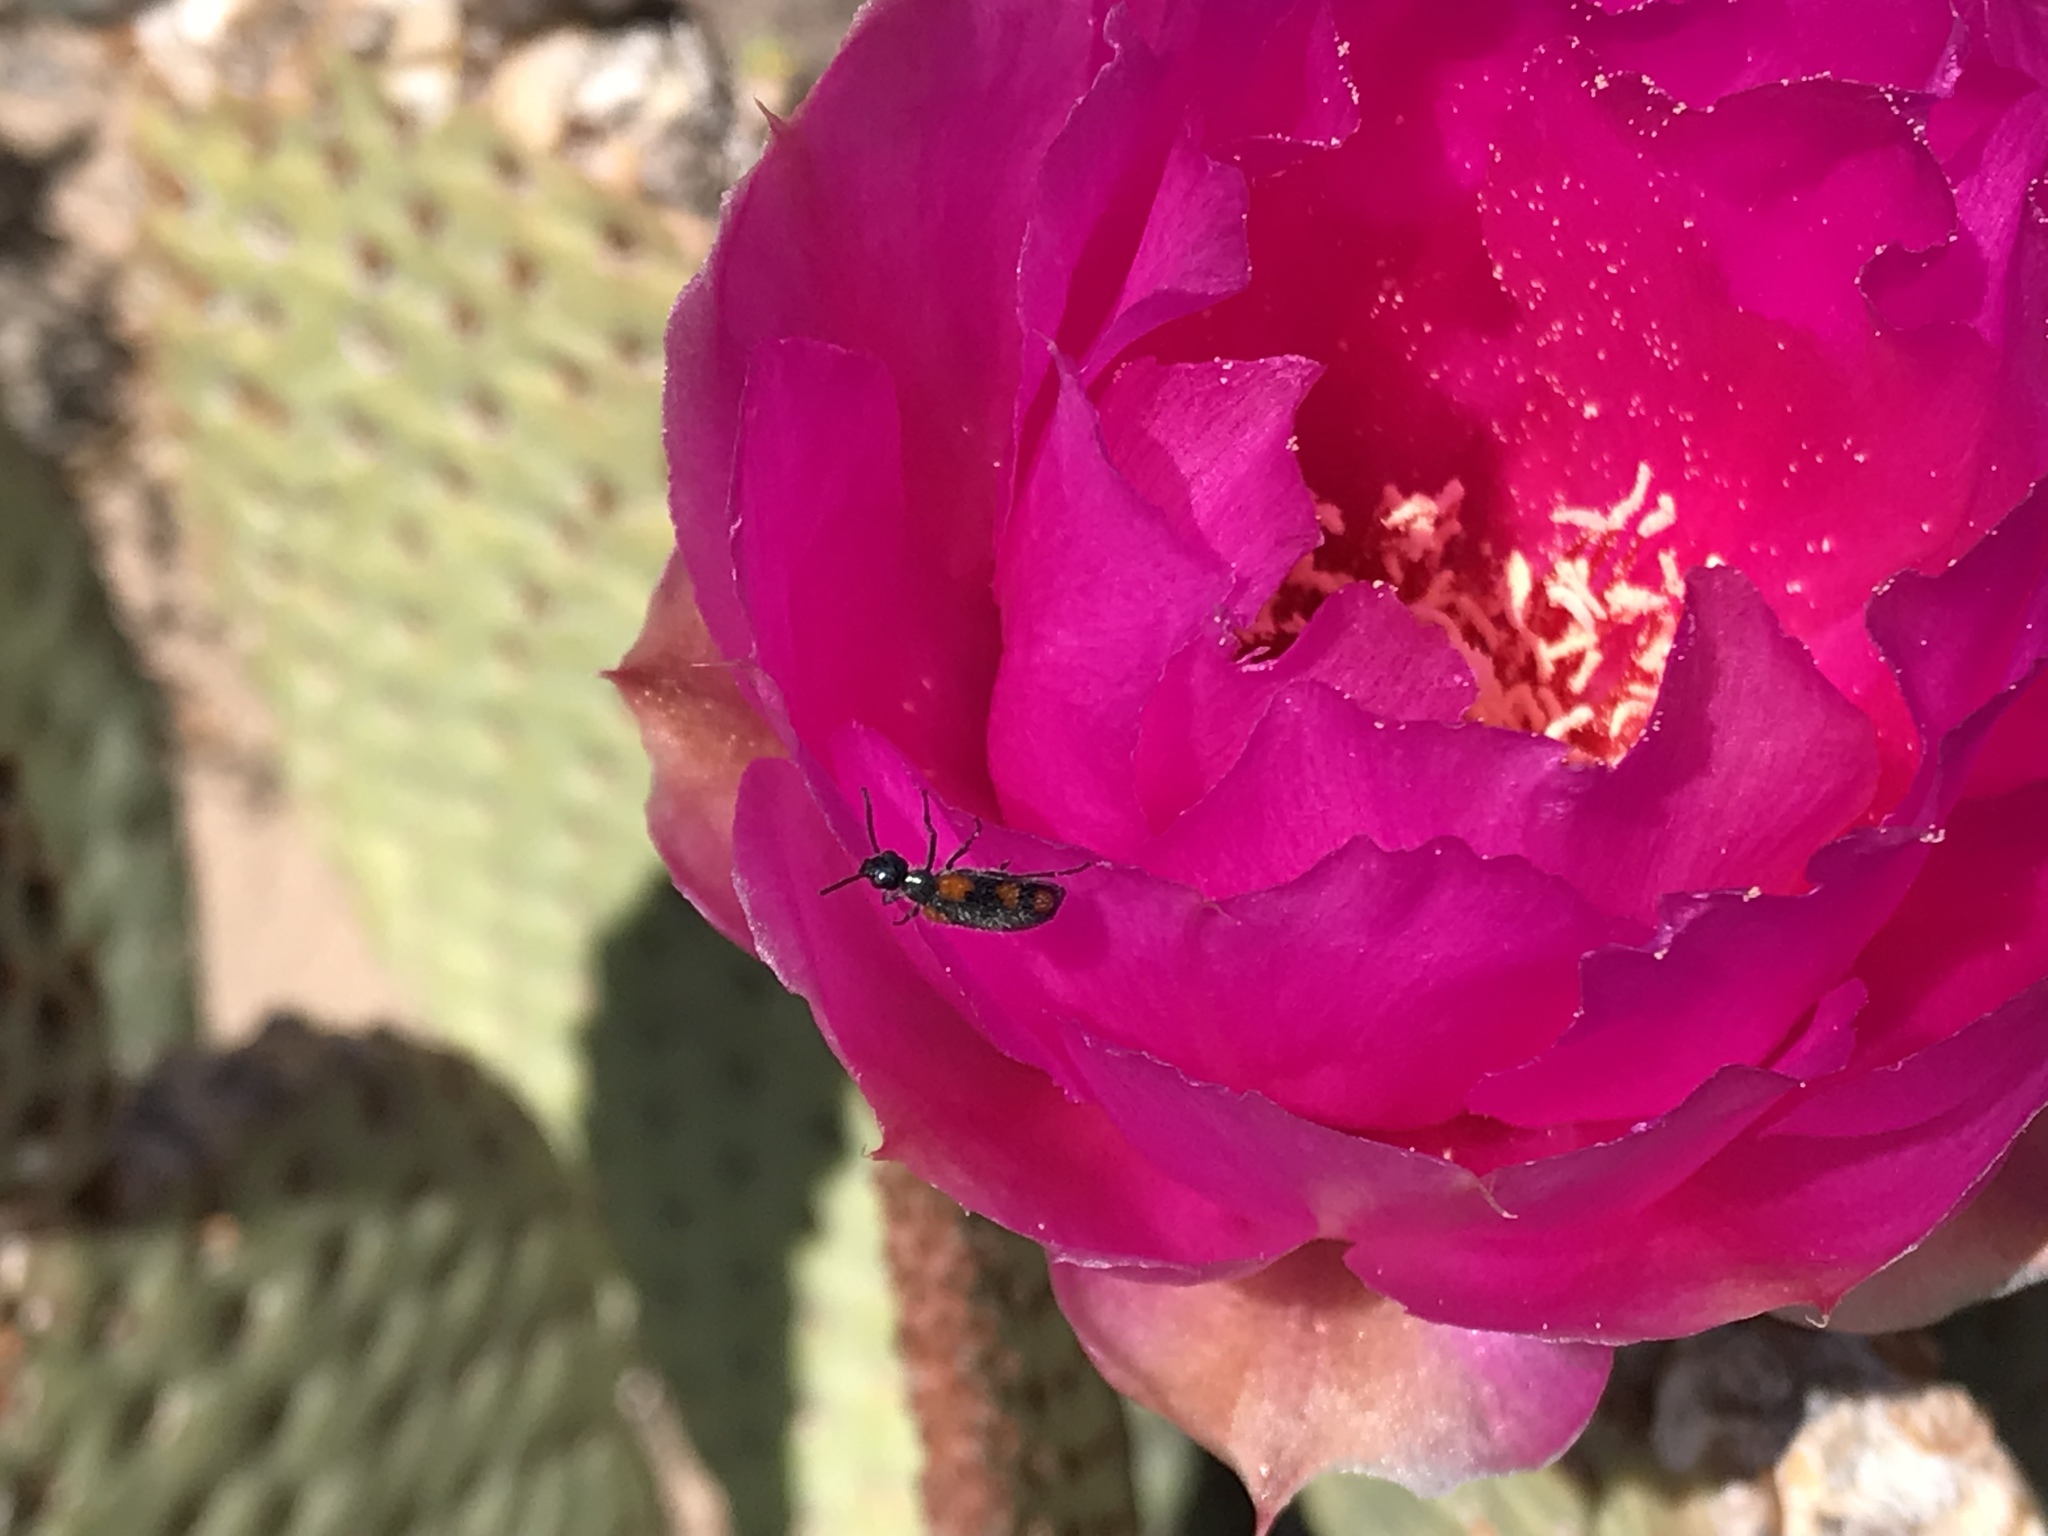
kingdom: Animalia
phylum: Arthropoda
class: Insecta
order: Coleoptera
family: Meloidae
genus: Eupompha
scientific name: Eupompha elegans
